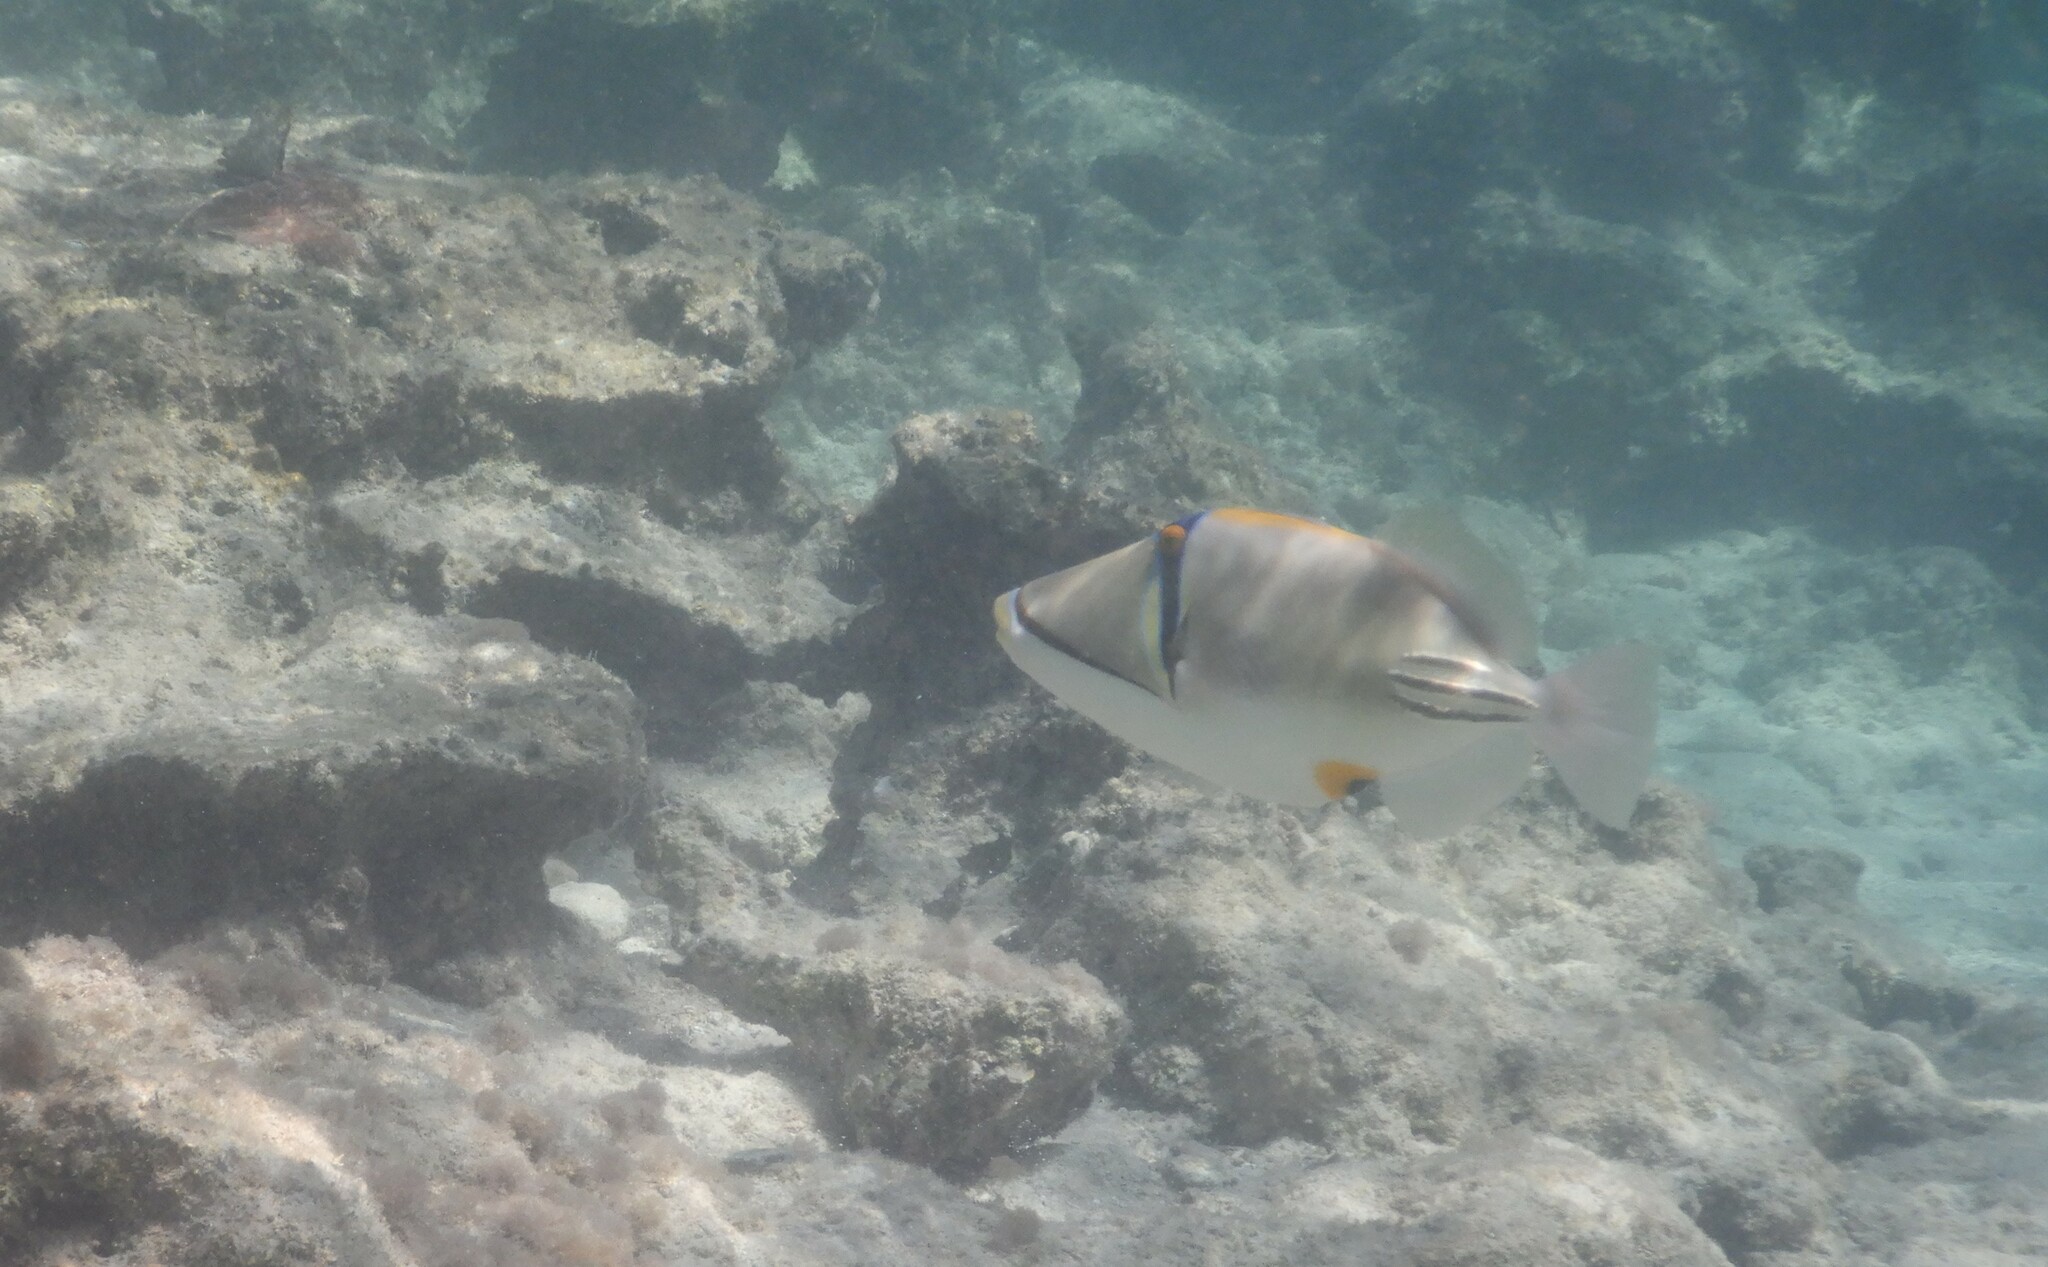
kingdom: Animalia
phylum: Chordata
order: Tetraodontiformes
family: Balistidae
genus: Rhinecanthus
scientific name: Rhinecanthus assasi
